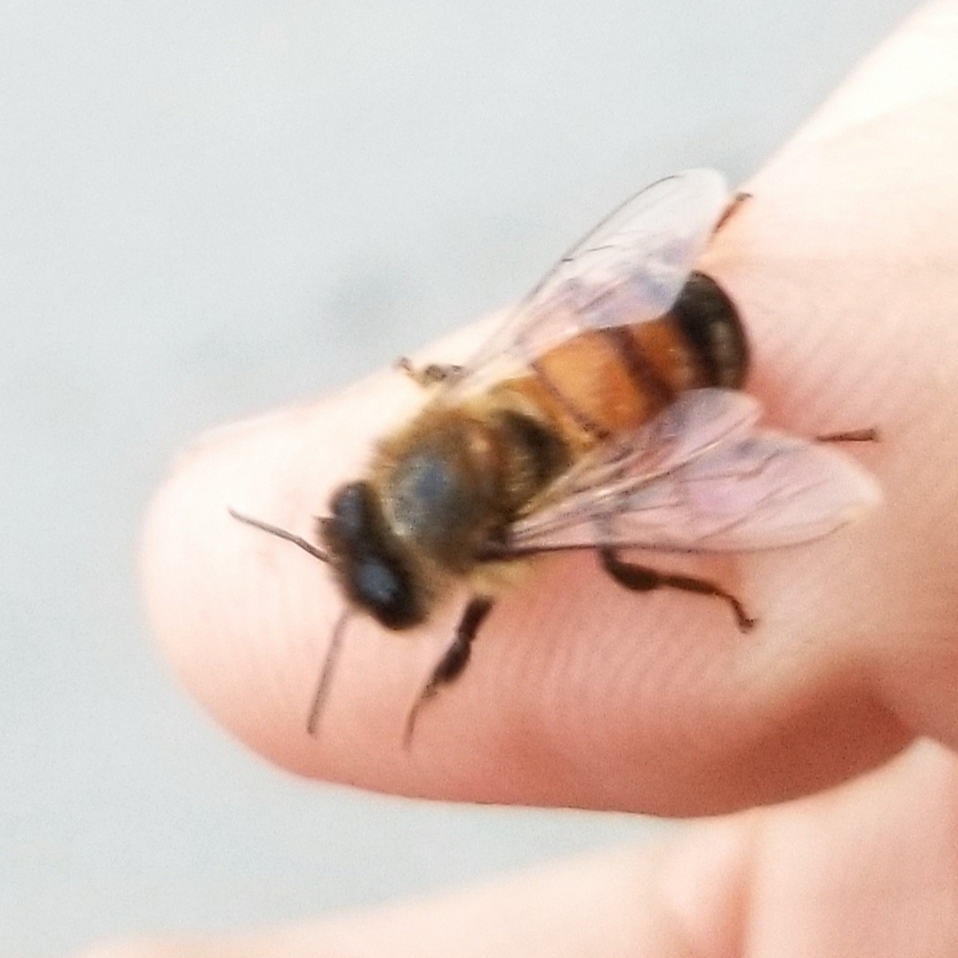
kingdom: Animalia
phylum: Arthropoda
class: Insecta
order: Hymenoptera
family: Apidae
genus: Apis
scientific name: Apis mellifera
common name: Honey bee
